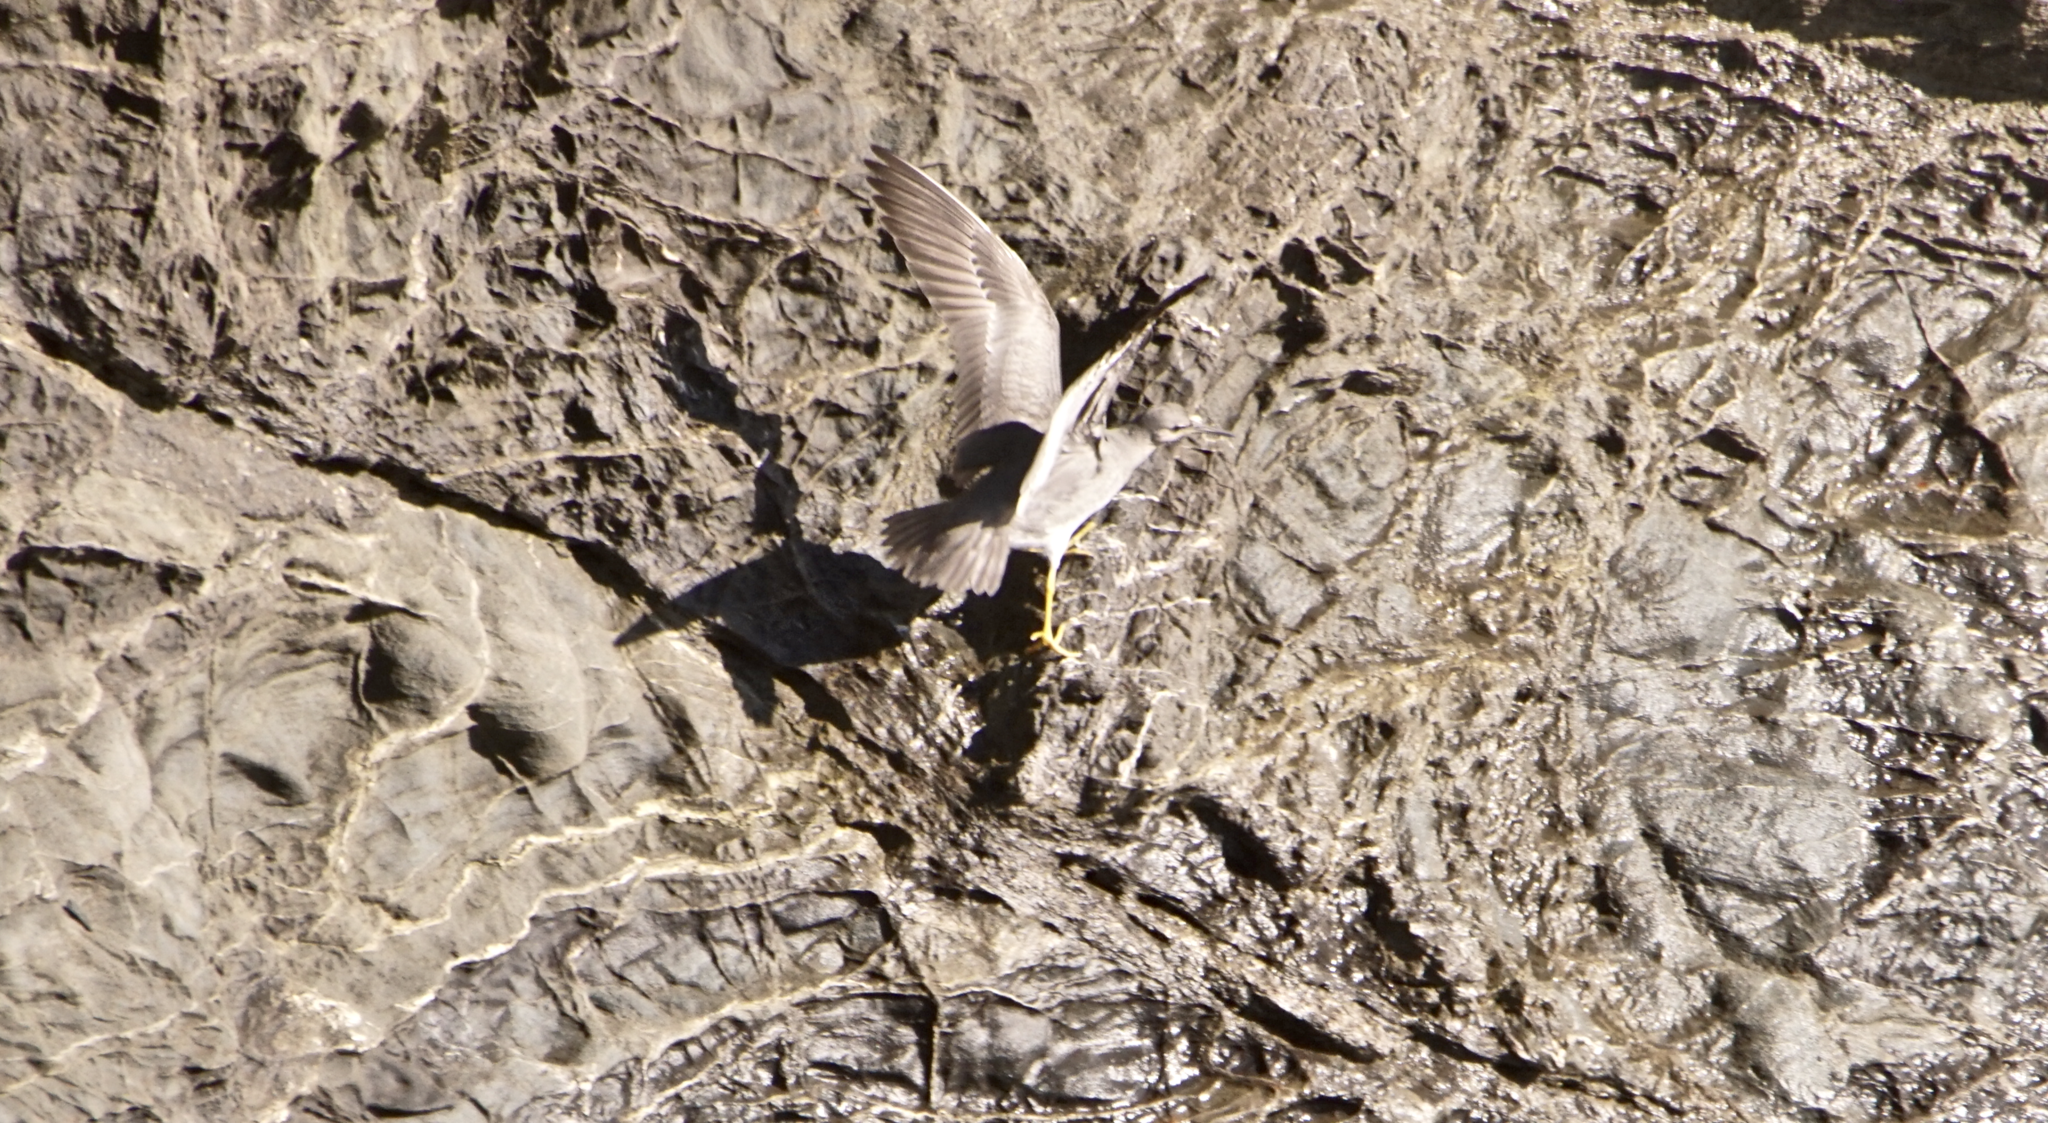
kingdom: Animalia
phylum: Chordata
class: Aves
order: Charadriiformes
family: Scolopacidae
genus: Tringa
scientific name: Tringa incana
